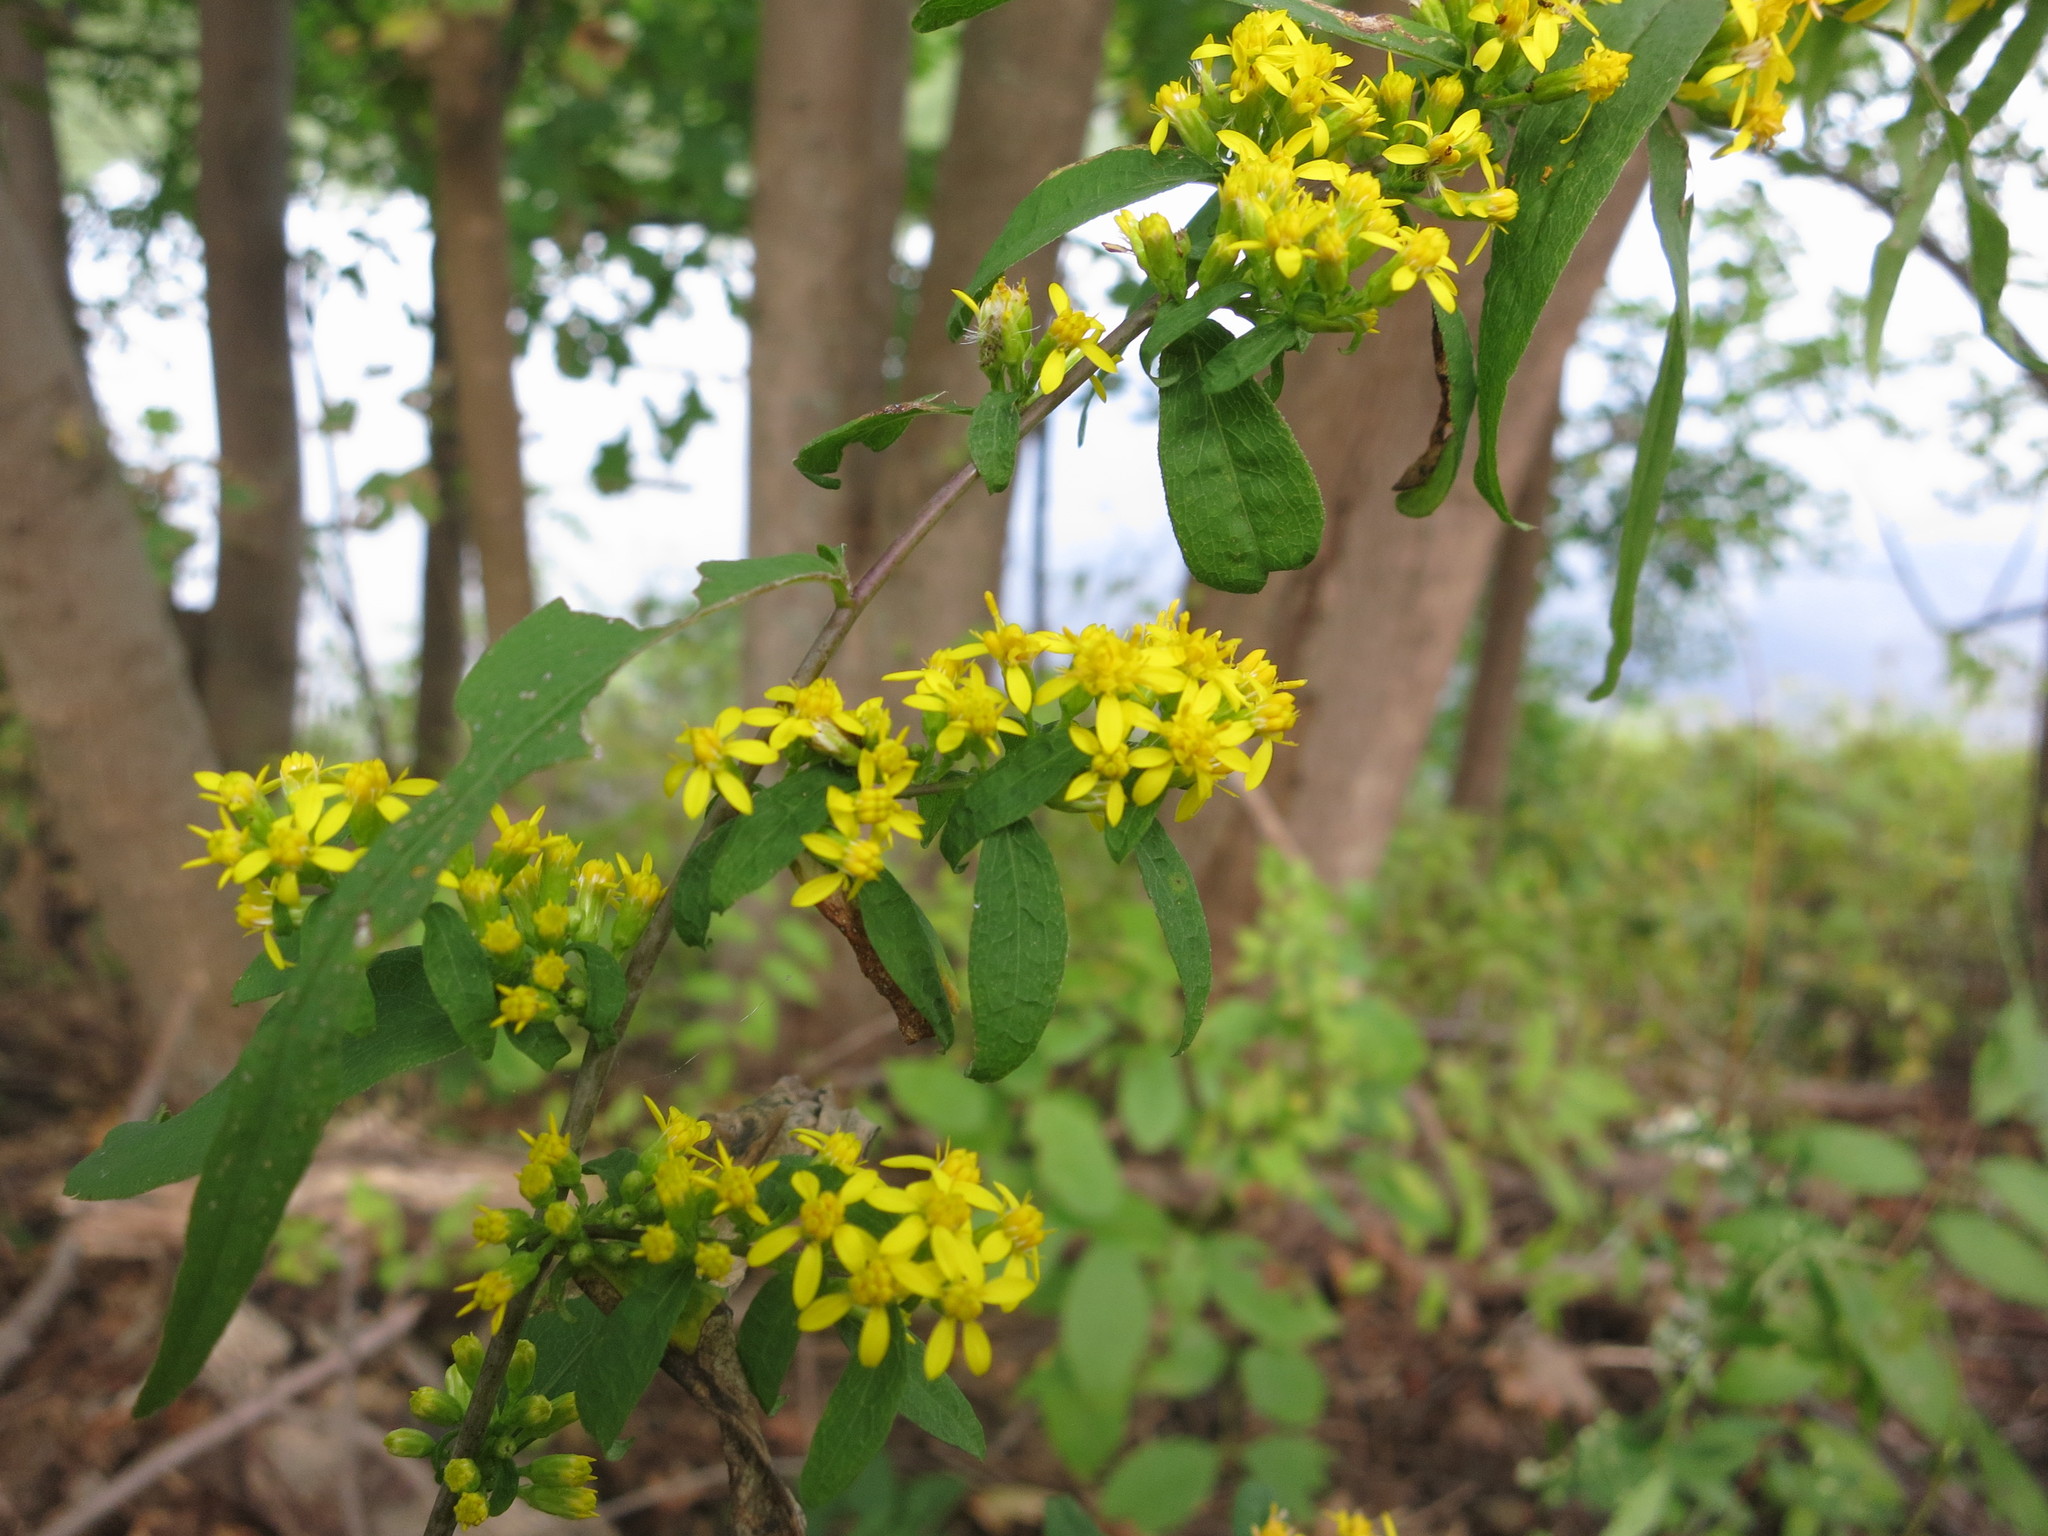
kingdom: Plantae
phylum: Tracheophyta
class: Magnoliopsida
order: Asterales
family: Asteraceae
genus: Solidago
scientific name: Solidago caesia
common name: Woodland goldenrod
